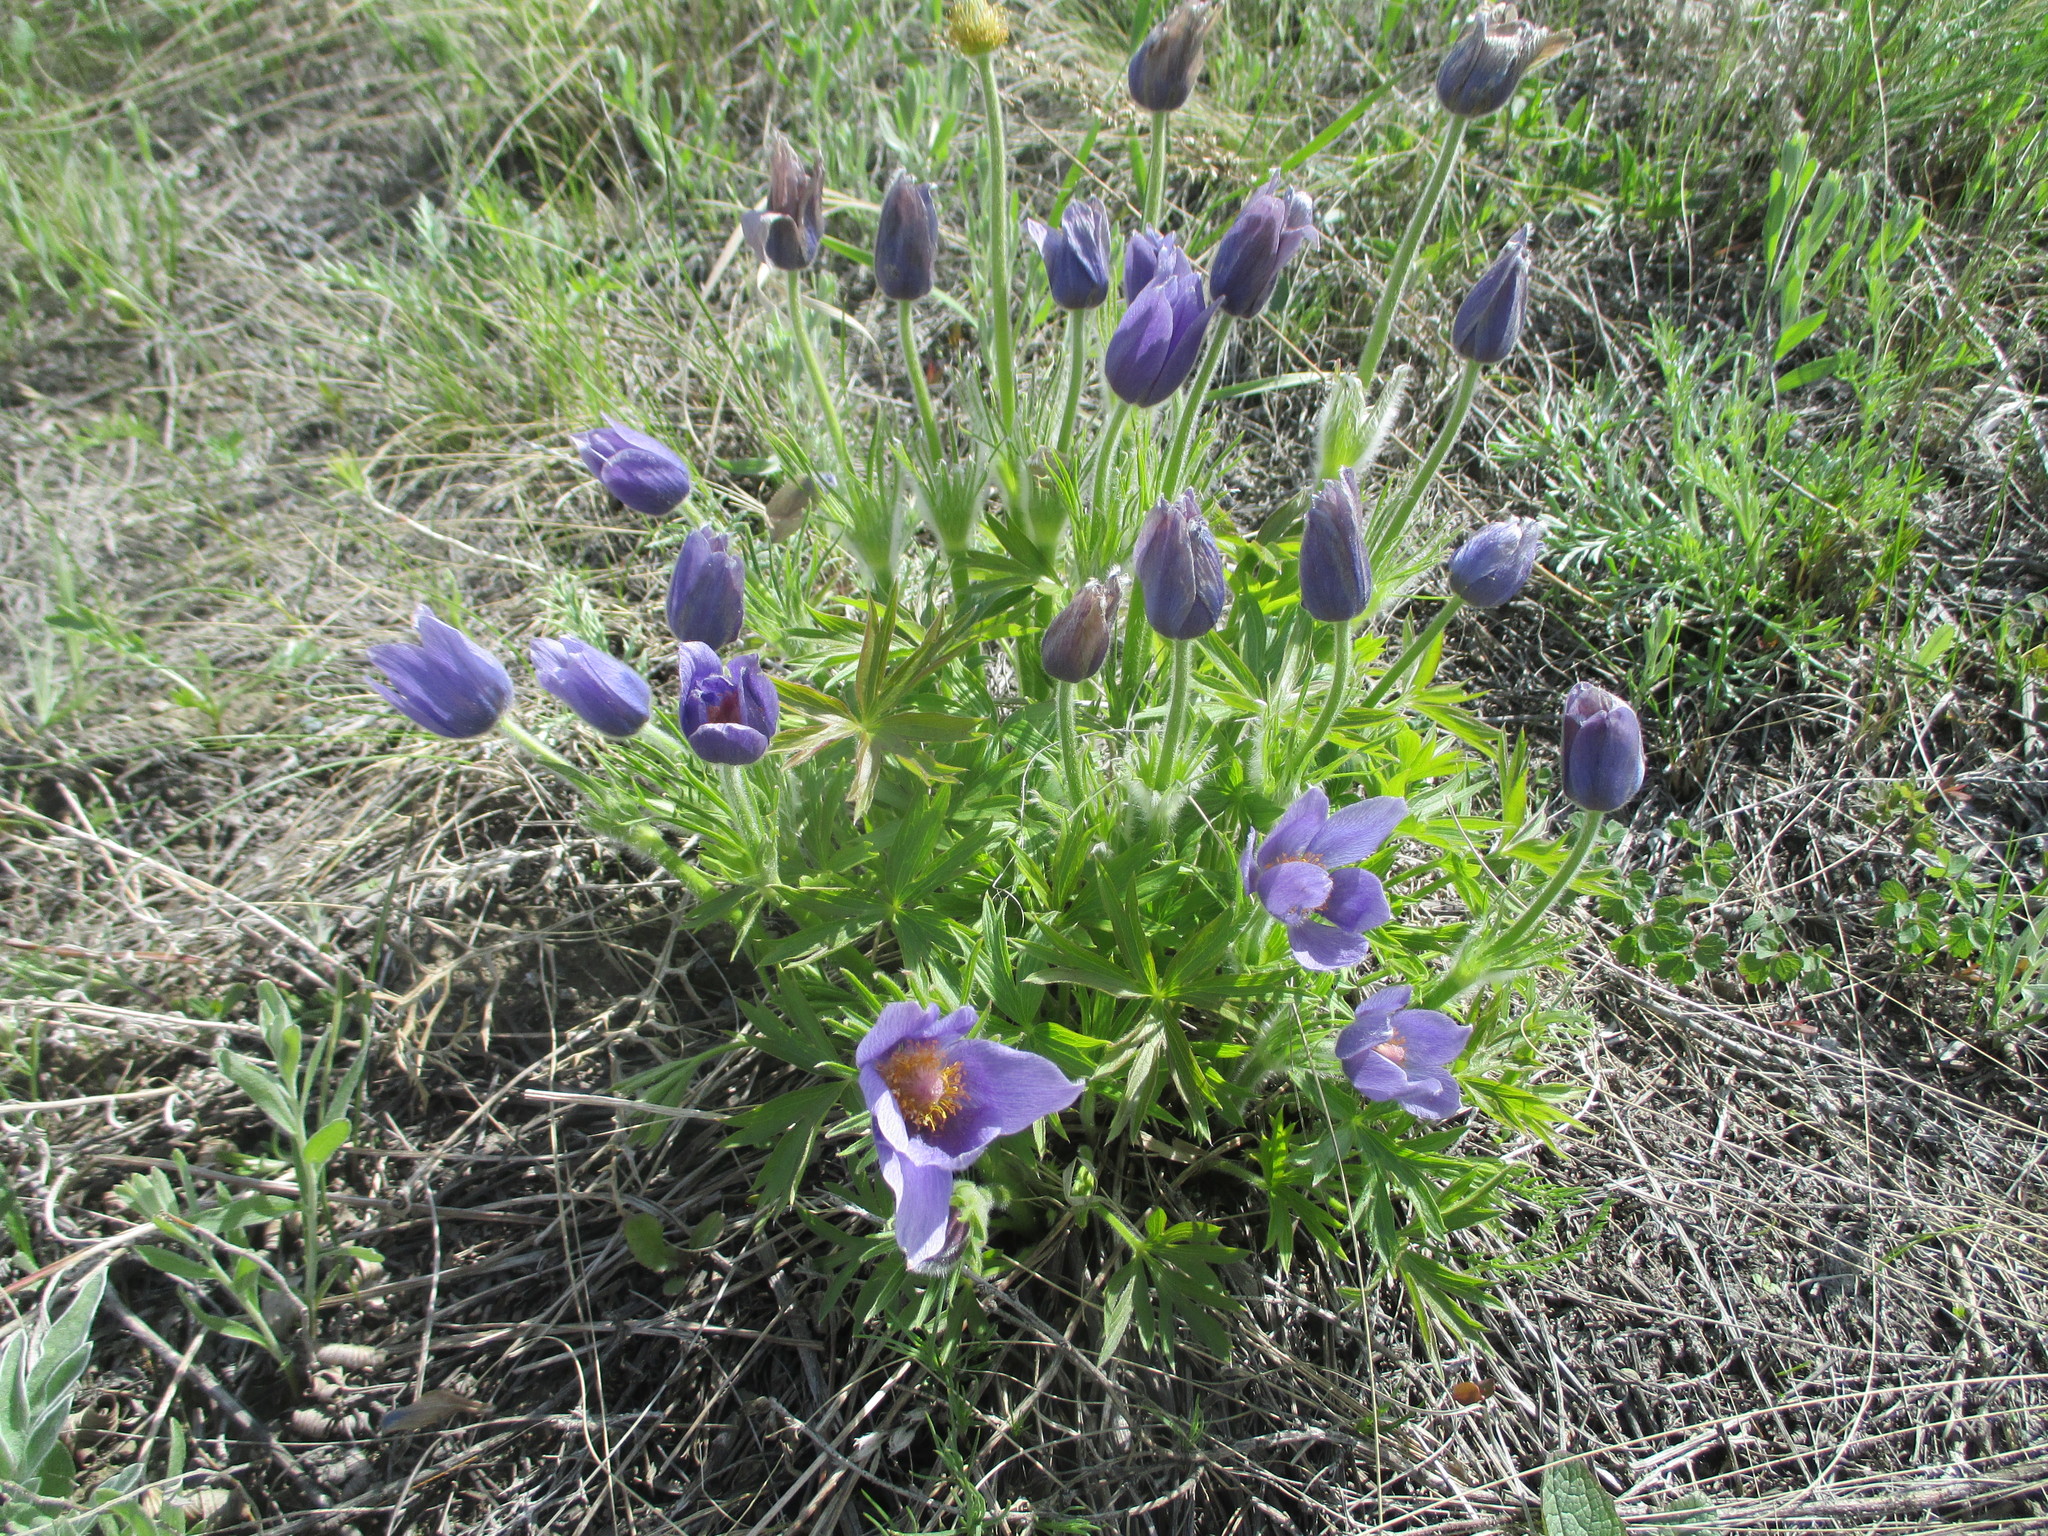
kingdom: Plantae
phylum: Tracheophyta
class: Magnoliopsida
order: Ranunculales
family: Ranunculaceae
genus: Pulsatilla
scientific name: Pulsatilla patens
